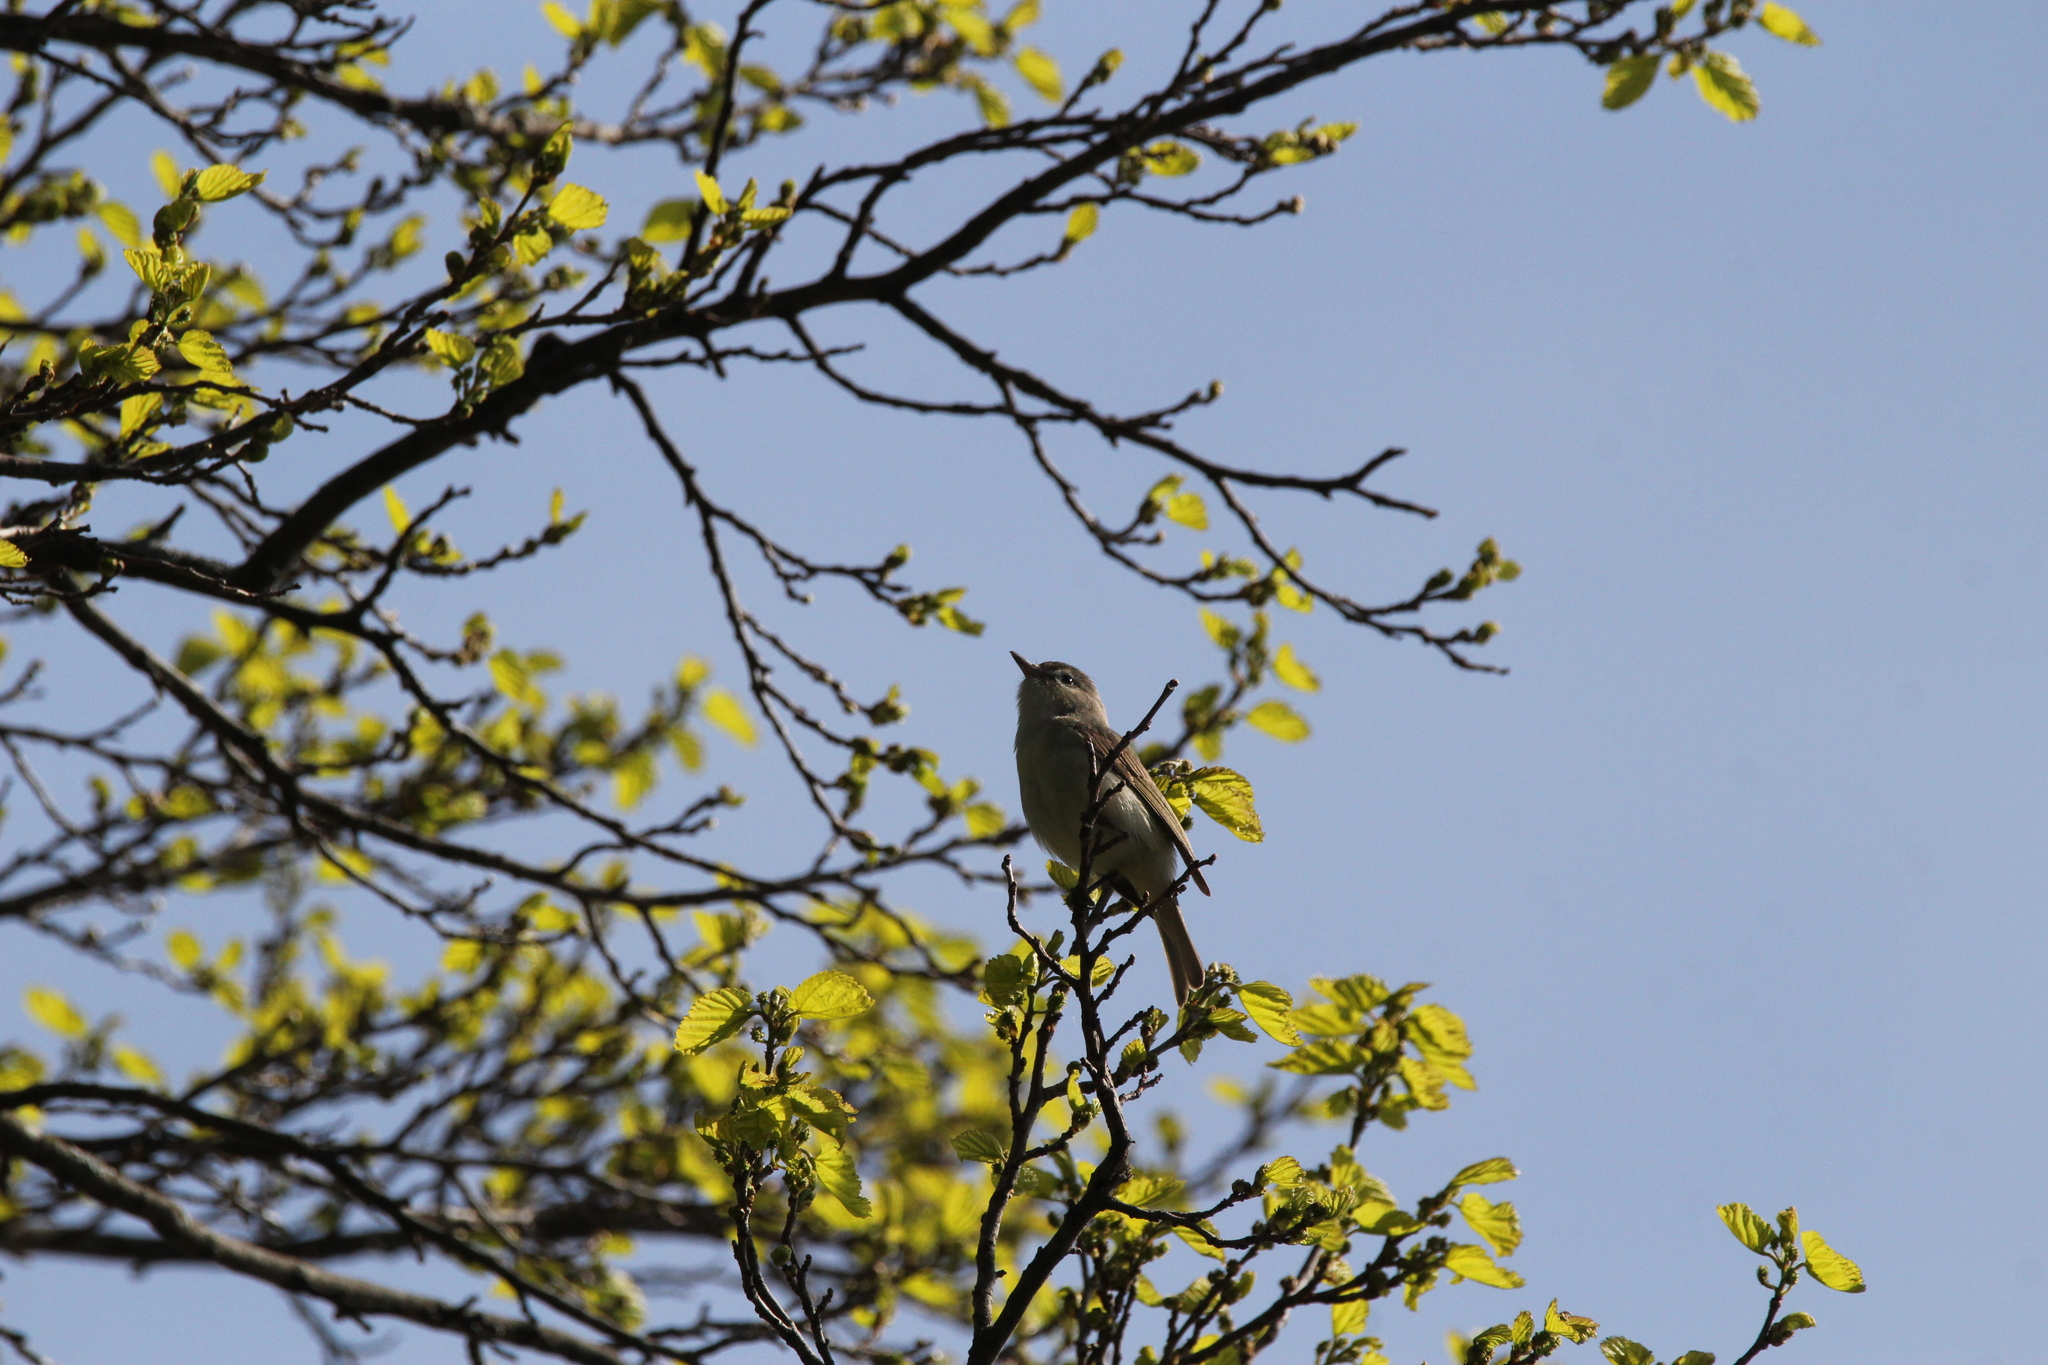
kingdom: Animalia
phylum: Chordata
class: Aves
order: Passeriformes
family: Vireonidae
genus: Vireo
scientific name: Vireo gilvus
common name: Warbling vireo
